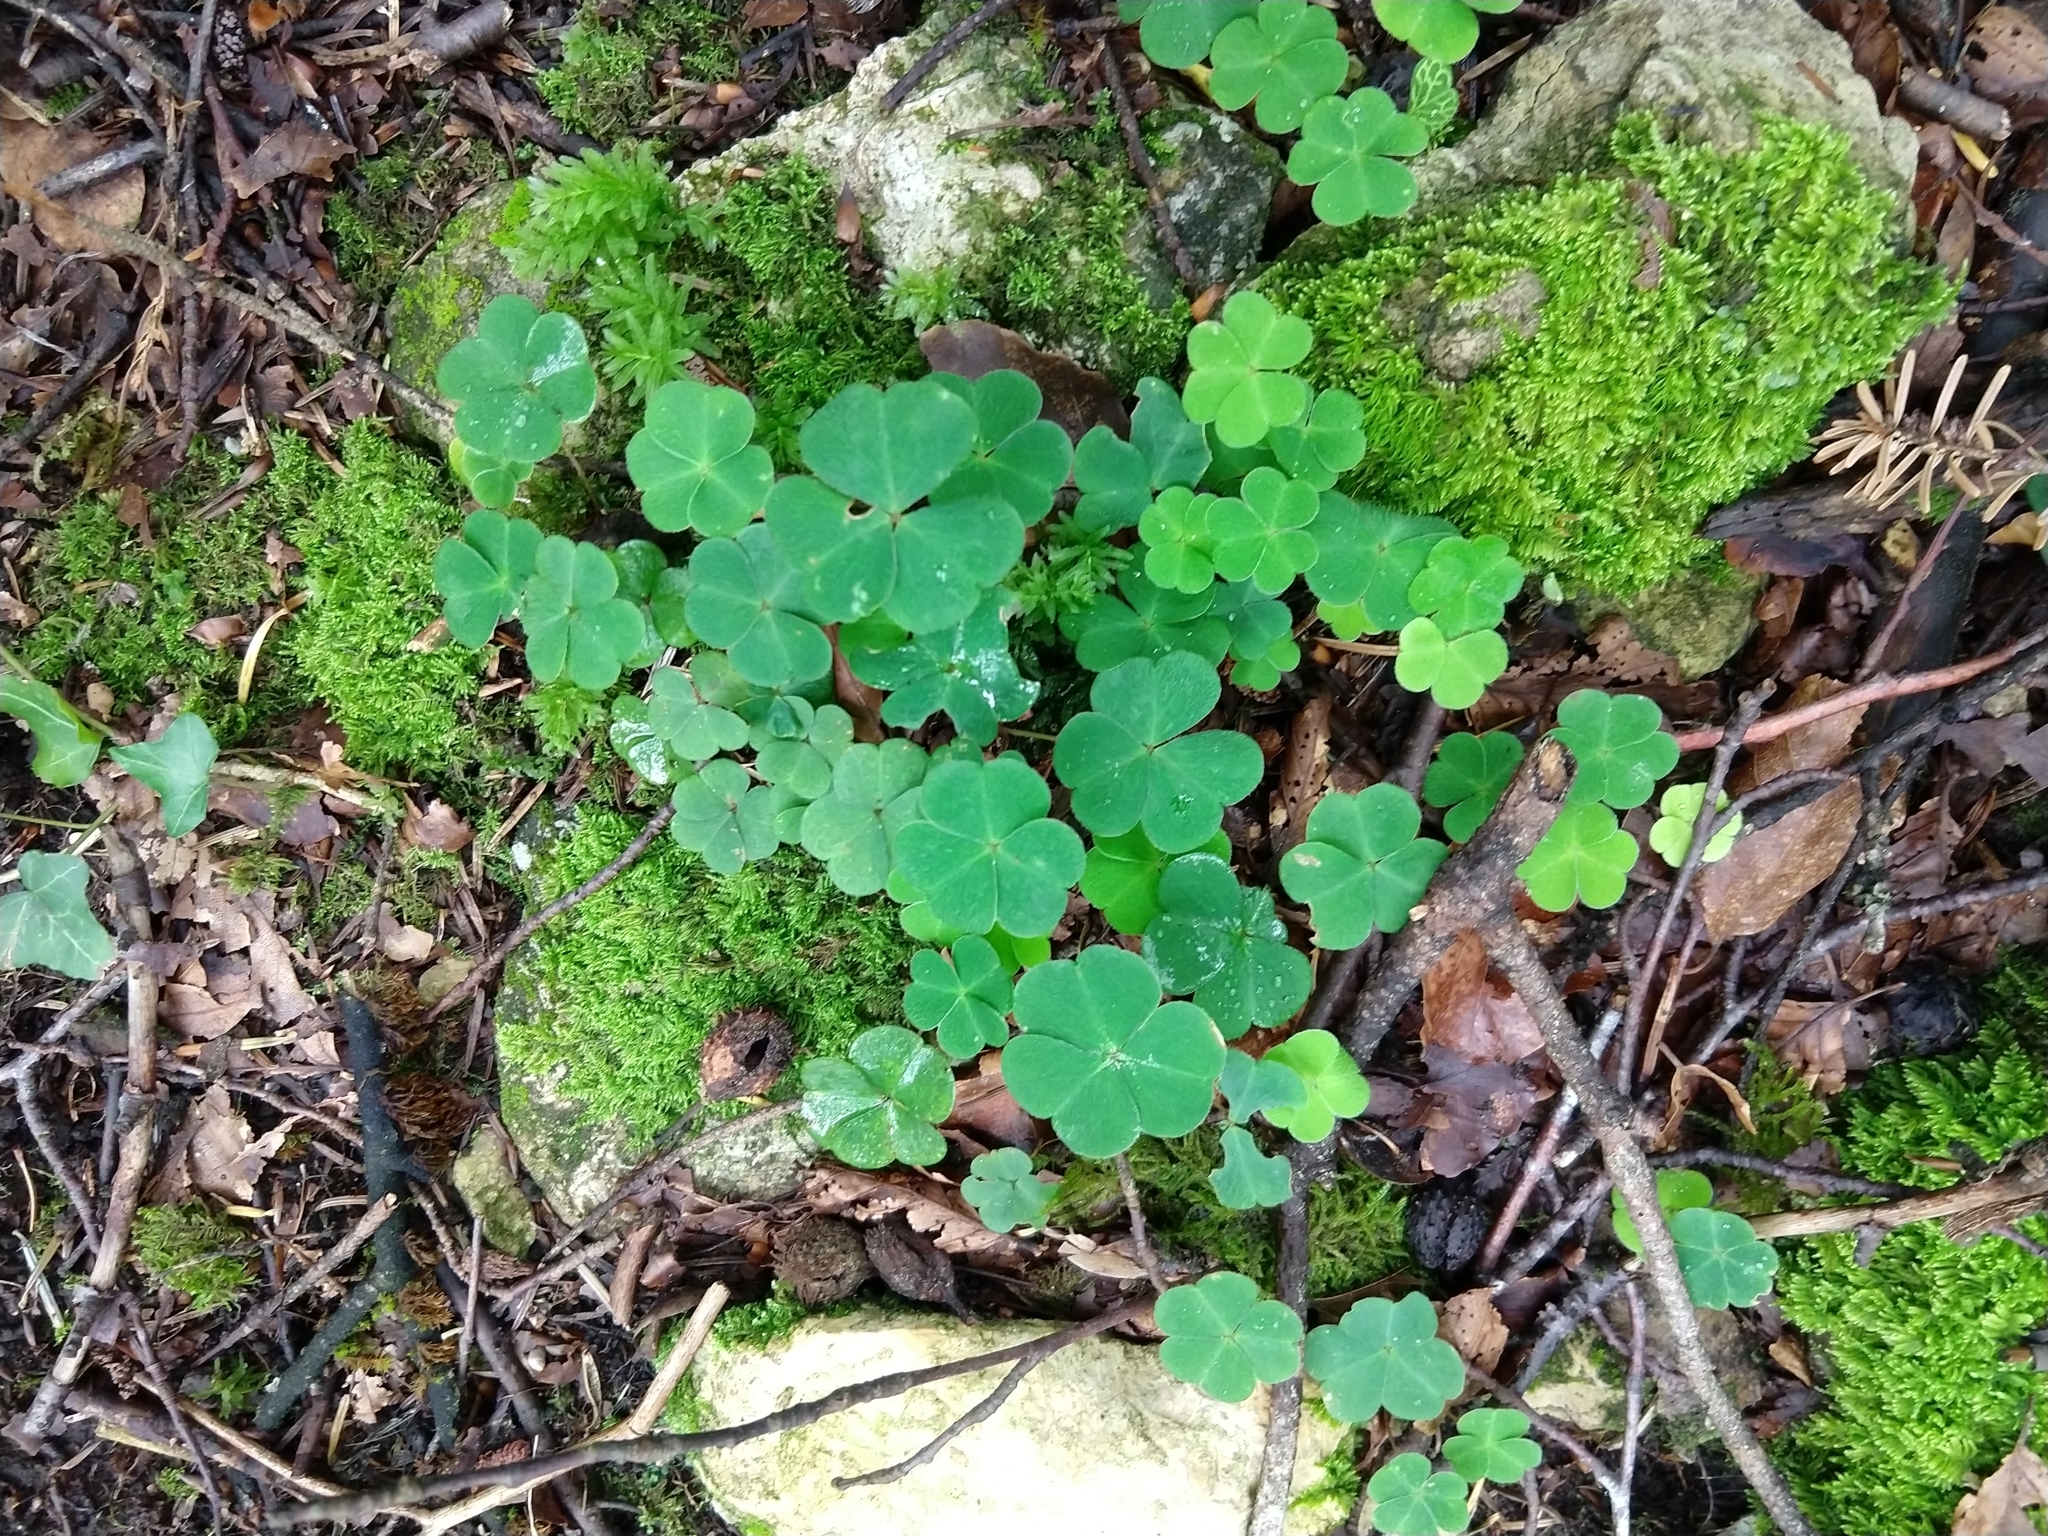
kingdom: Plantae
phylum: Tracheophyta
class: Magnoliopsida
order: Oxalidales
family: Oxalidaceae
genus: Oxalis
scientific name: Oxalis acetosella
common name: Wood-sorrel
